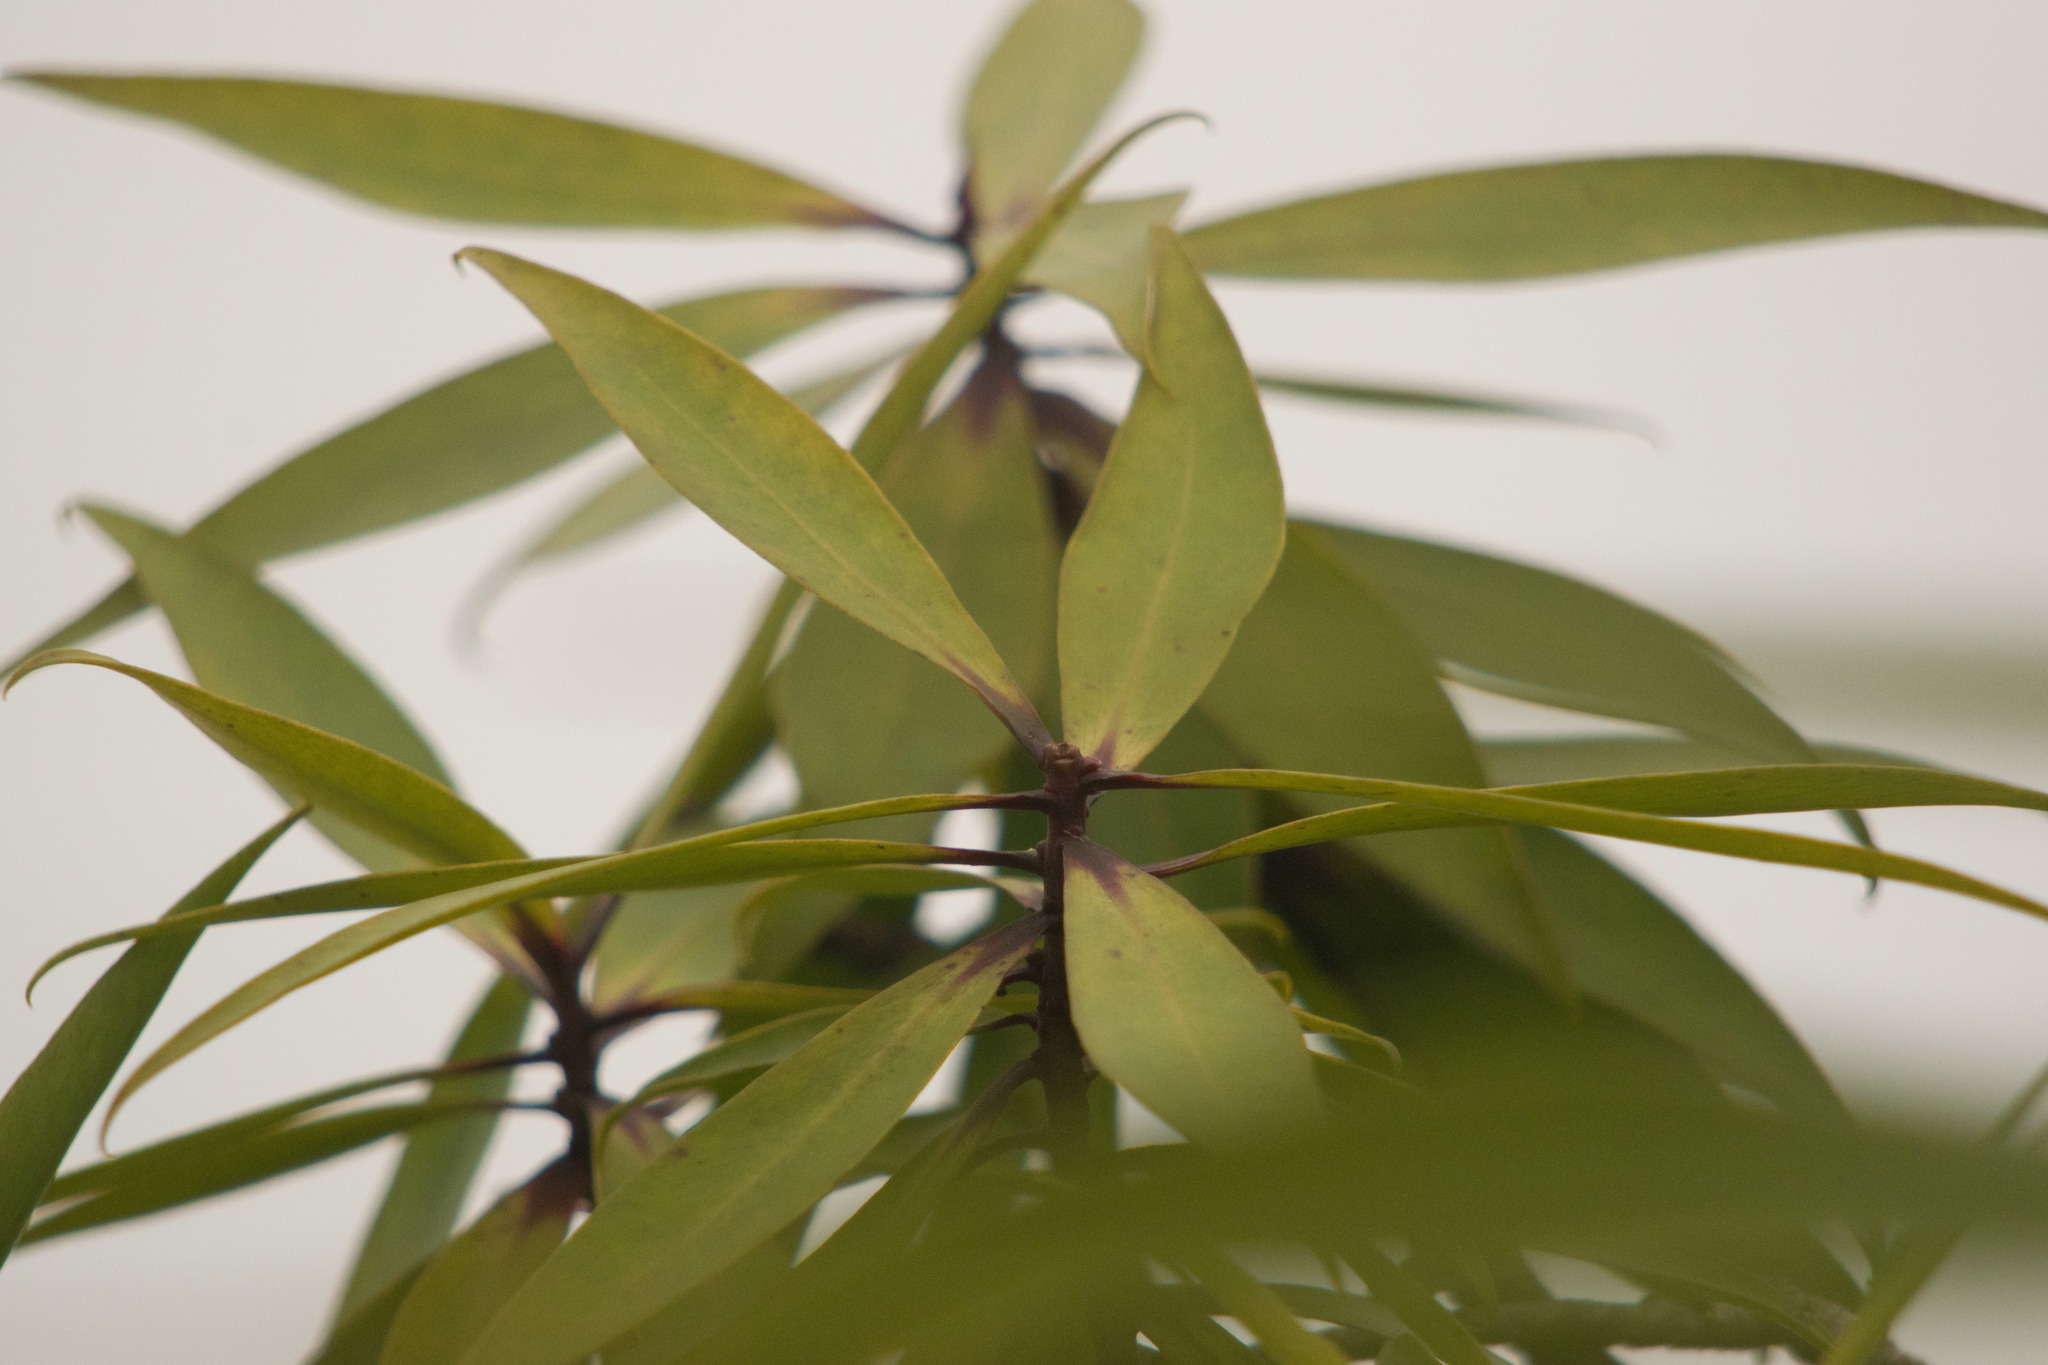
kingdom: Plantae
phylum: Tracheophyta
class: Magnoliopsida
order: Ericales
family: Primulaceae
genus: Myrsine
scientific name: Myrsine fosbergii
